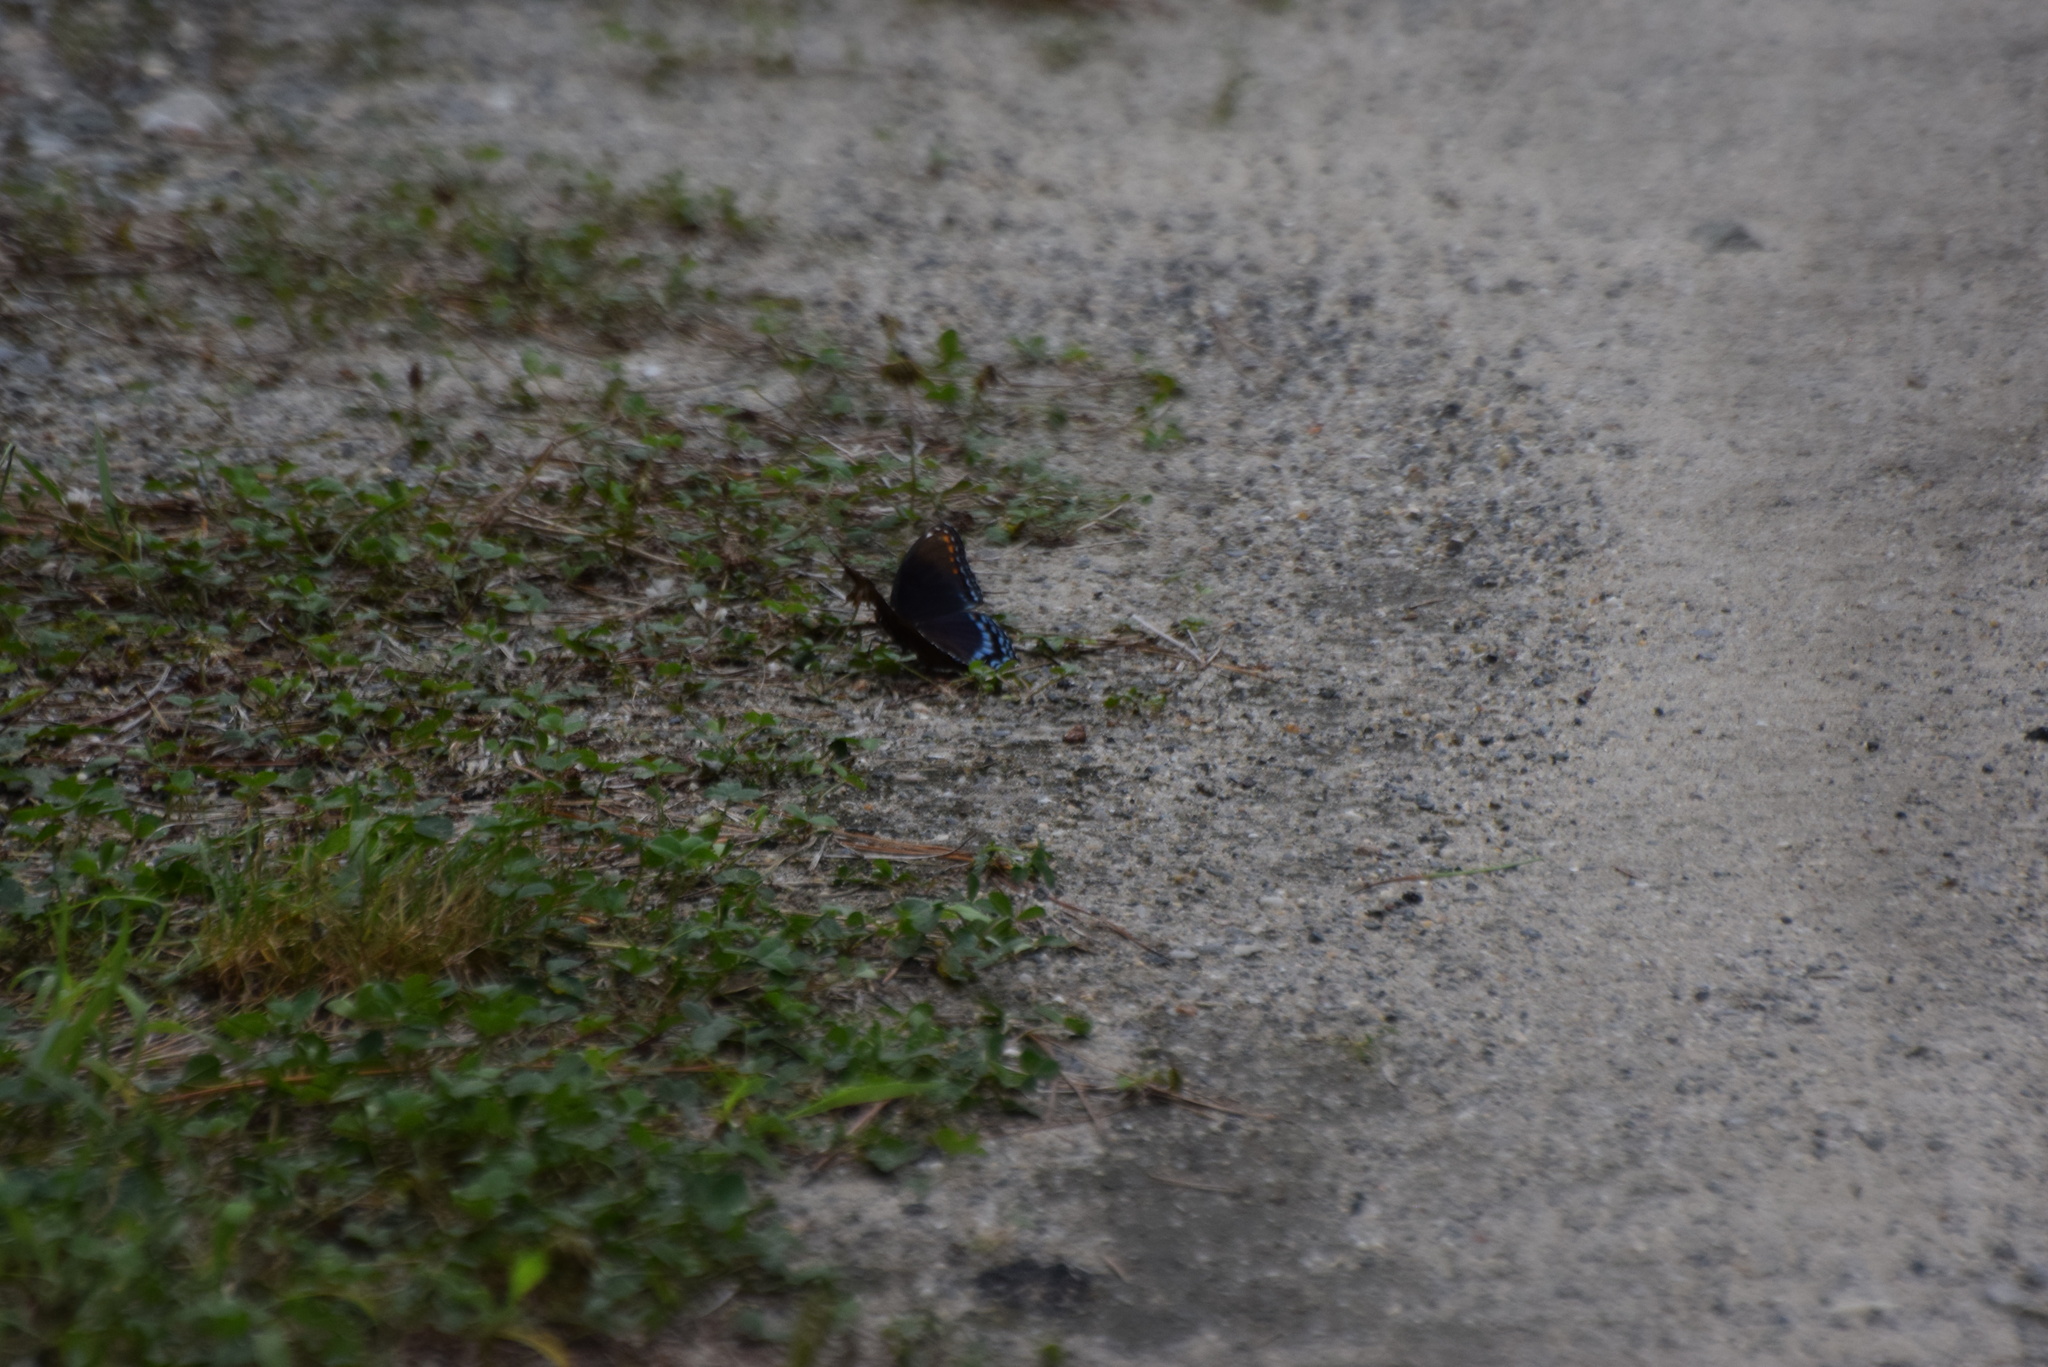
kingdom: Animalia
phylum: Arthropoda
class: Insecta
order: Lepidoptera
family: Nymphalidae
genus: Limenitis
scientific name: Limenitis arthemis
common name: Red-spotted admiral
